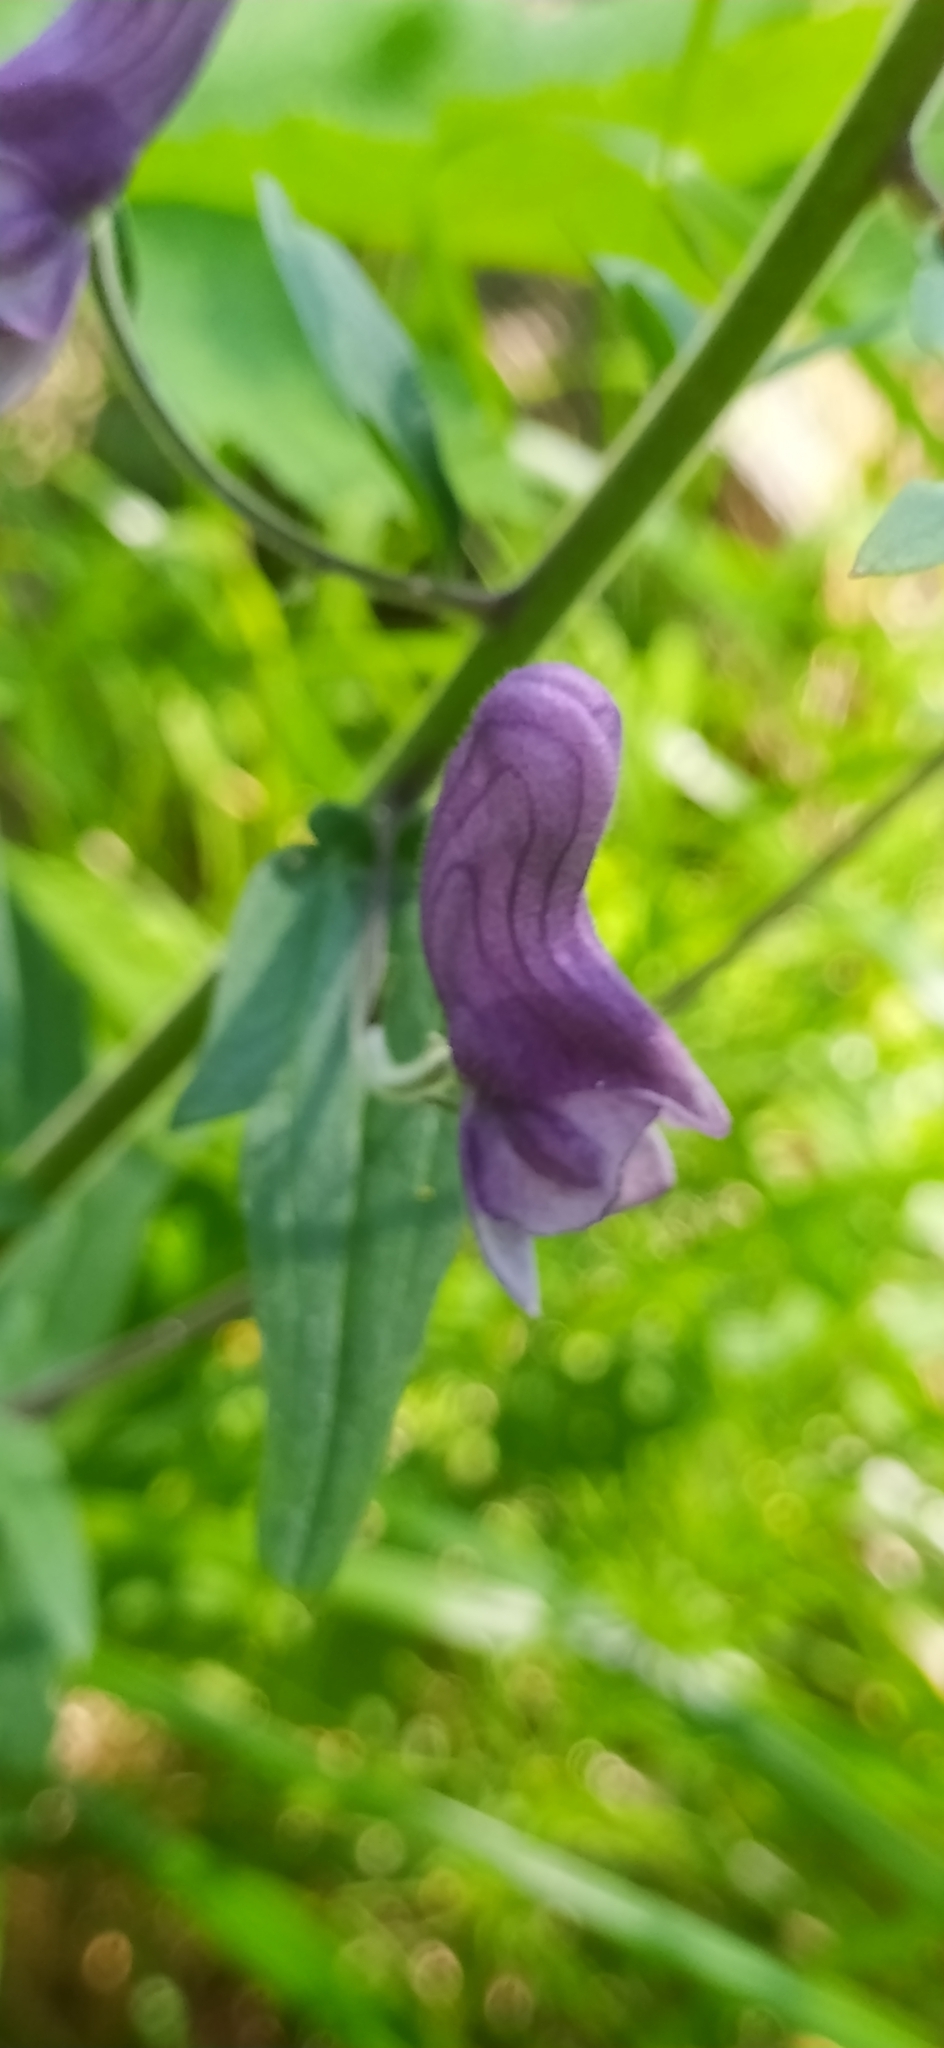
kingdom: Plantae
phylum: Tracheophyta
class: Magnoliopsida
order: Ranunculales
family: Ranunculaceae
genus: Aconitum
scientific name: Aconitum septentrionale
